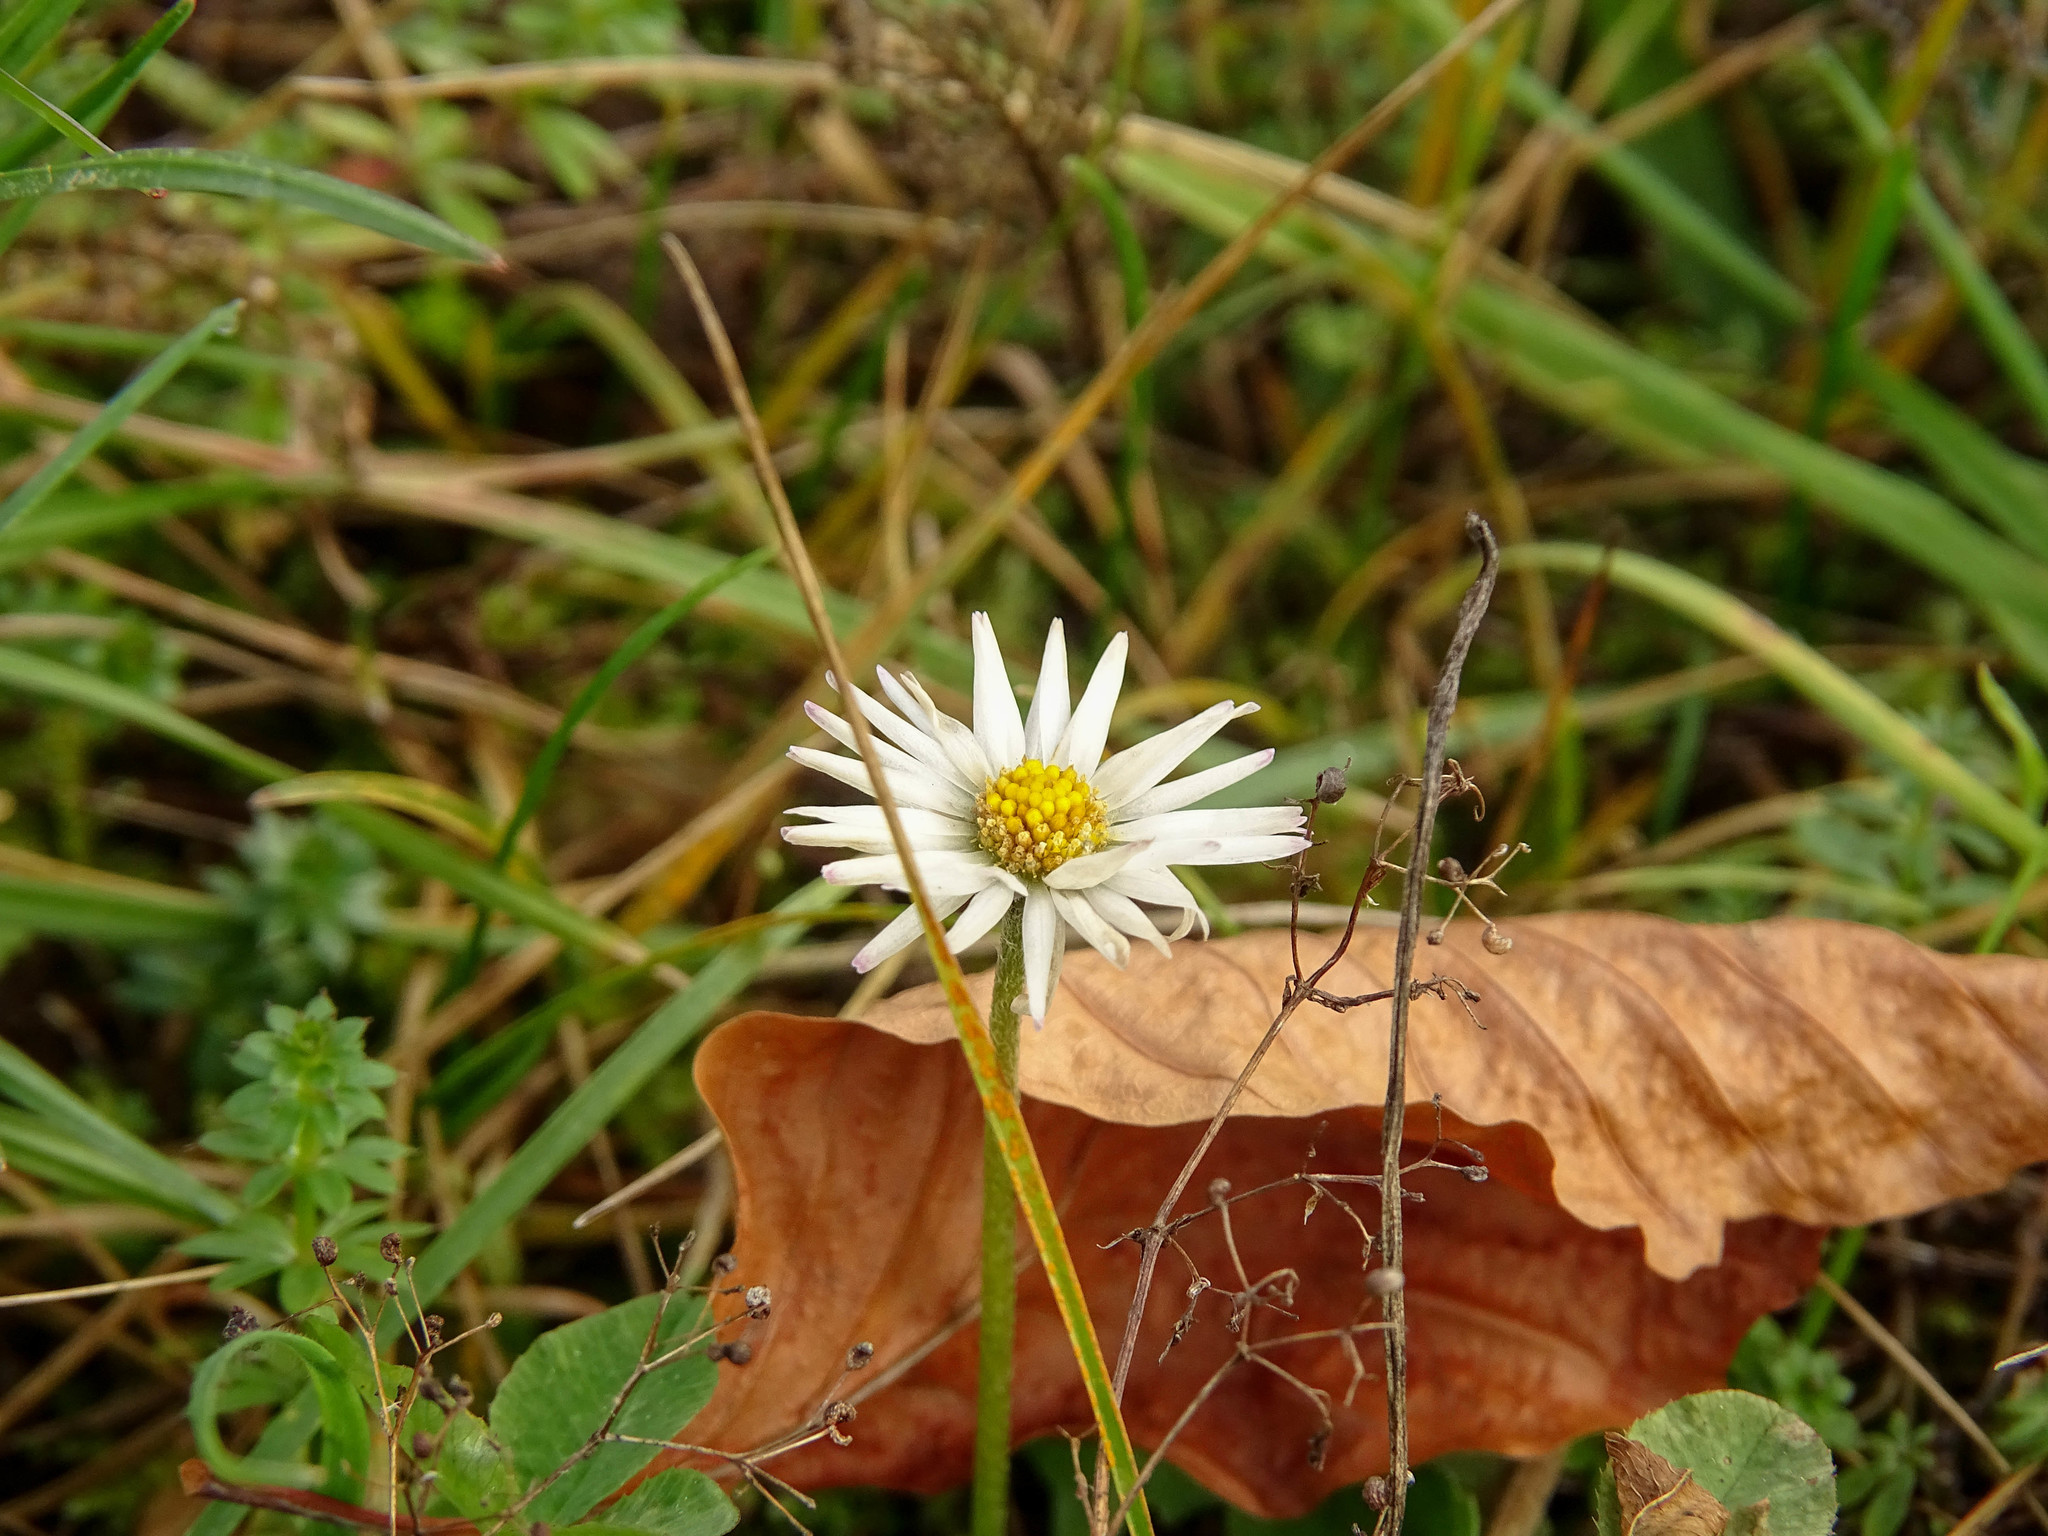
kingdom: Plantae
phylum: Tracheophyta
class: Magnoliopsida
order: Asterales
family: Asteraceae
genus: Bellis
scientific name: Bellis perennis
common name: Lawndaisy
